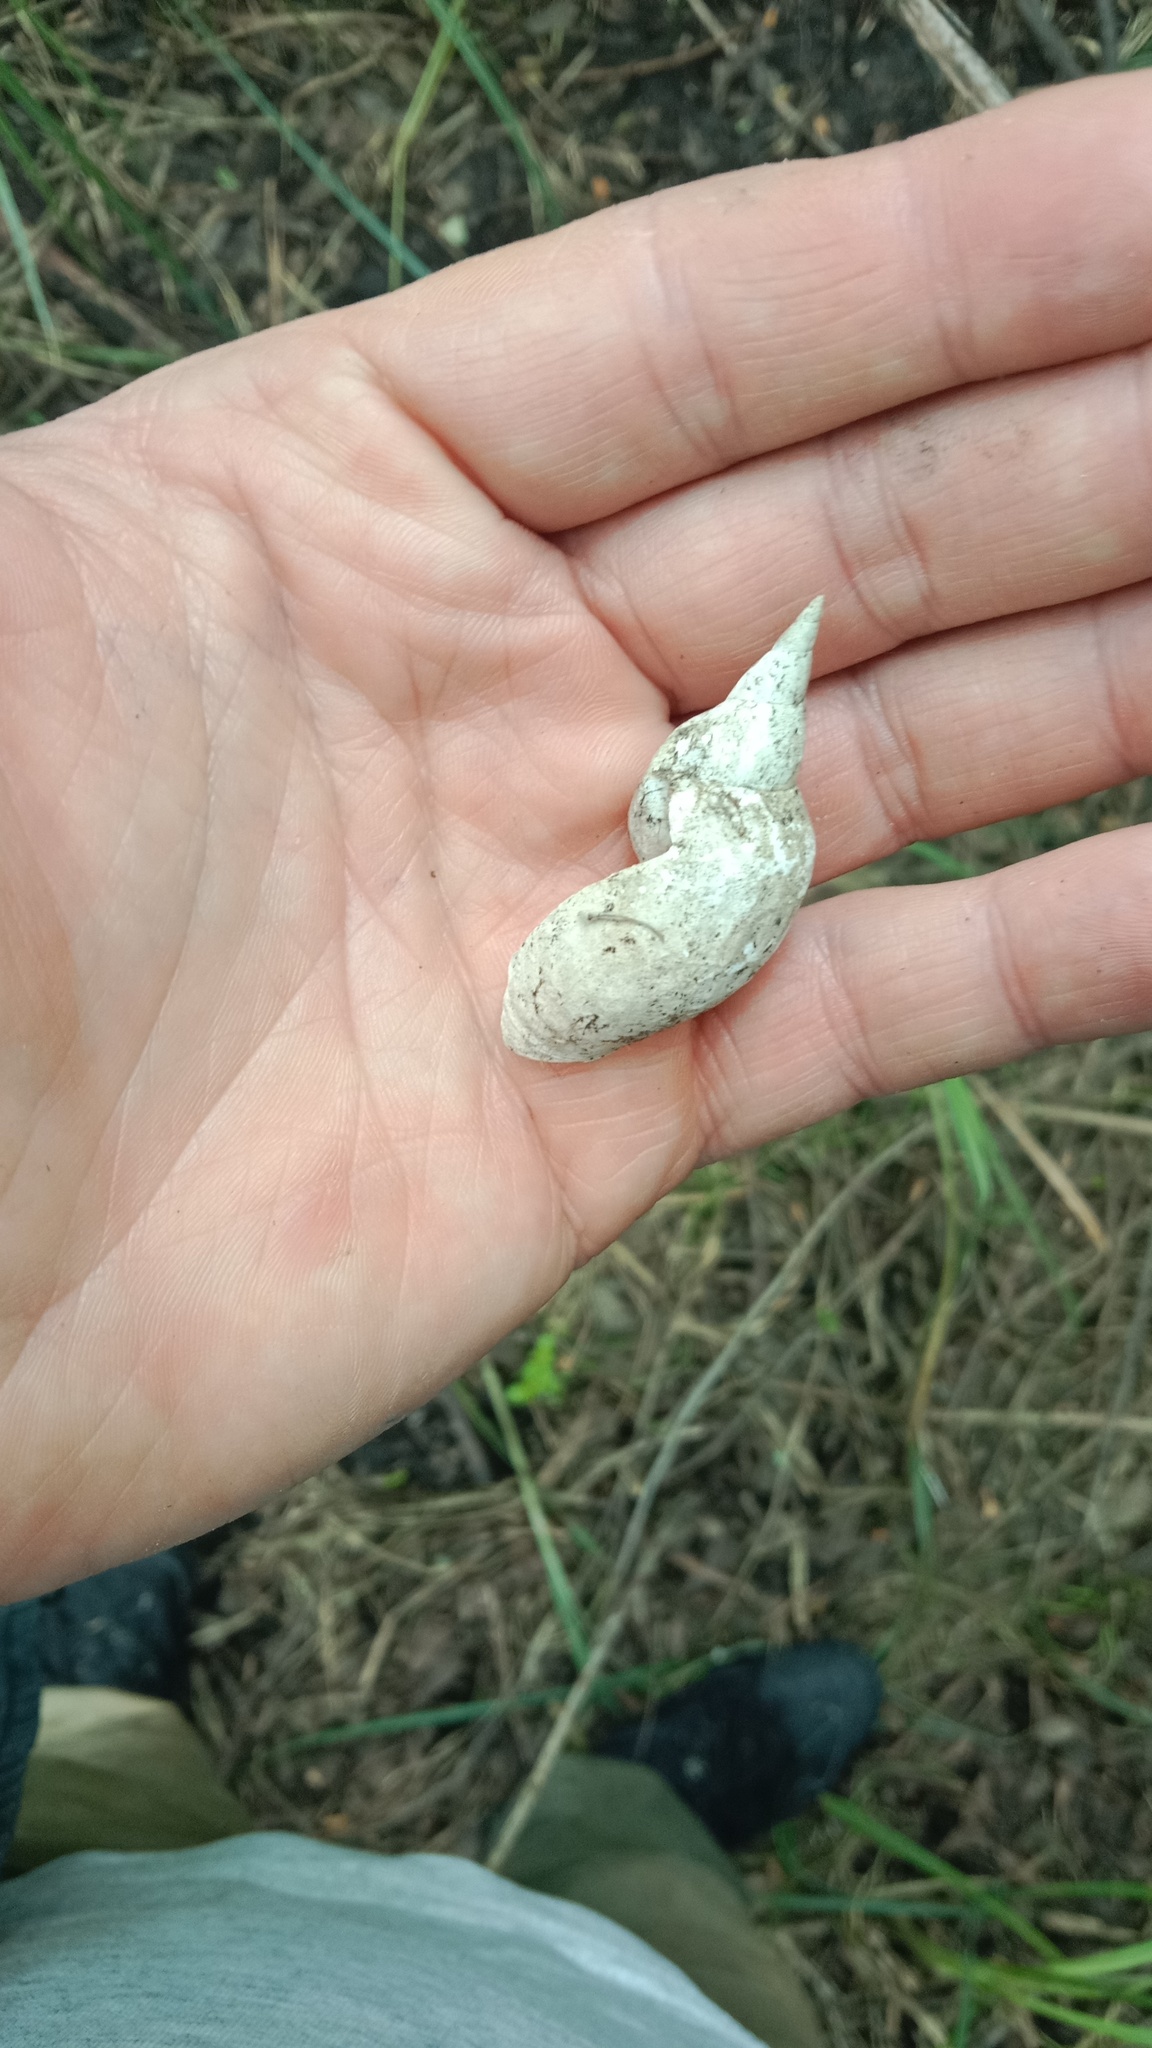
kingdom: Animalia
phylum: Mollusca
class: Gastropoda
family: Lymnaeidae
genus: Lymnaea
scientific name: Lymnaea stagnalis
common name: Great pond snail
